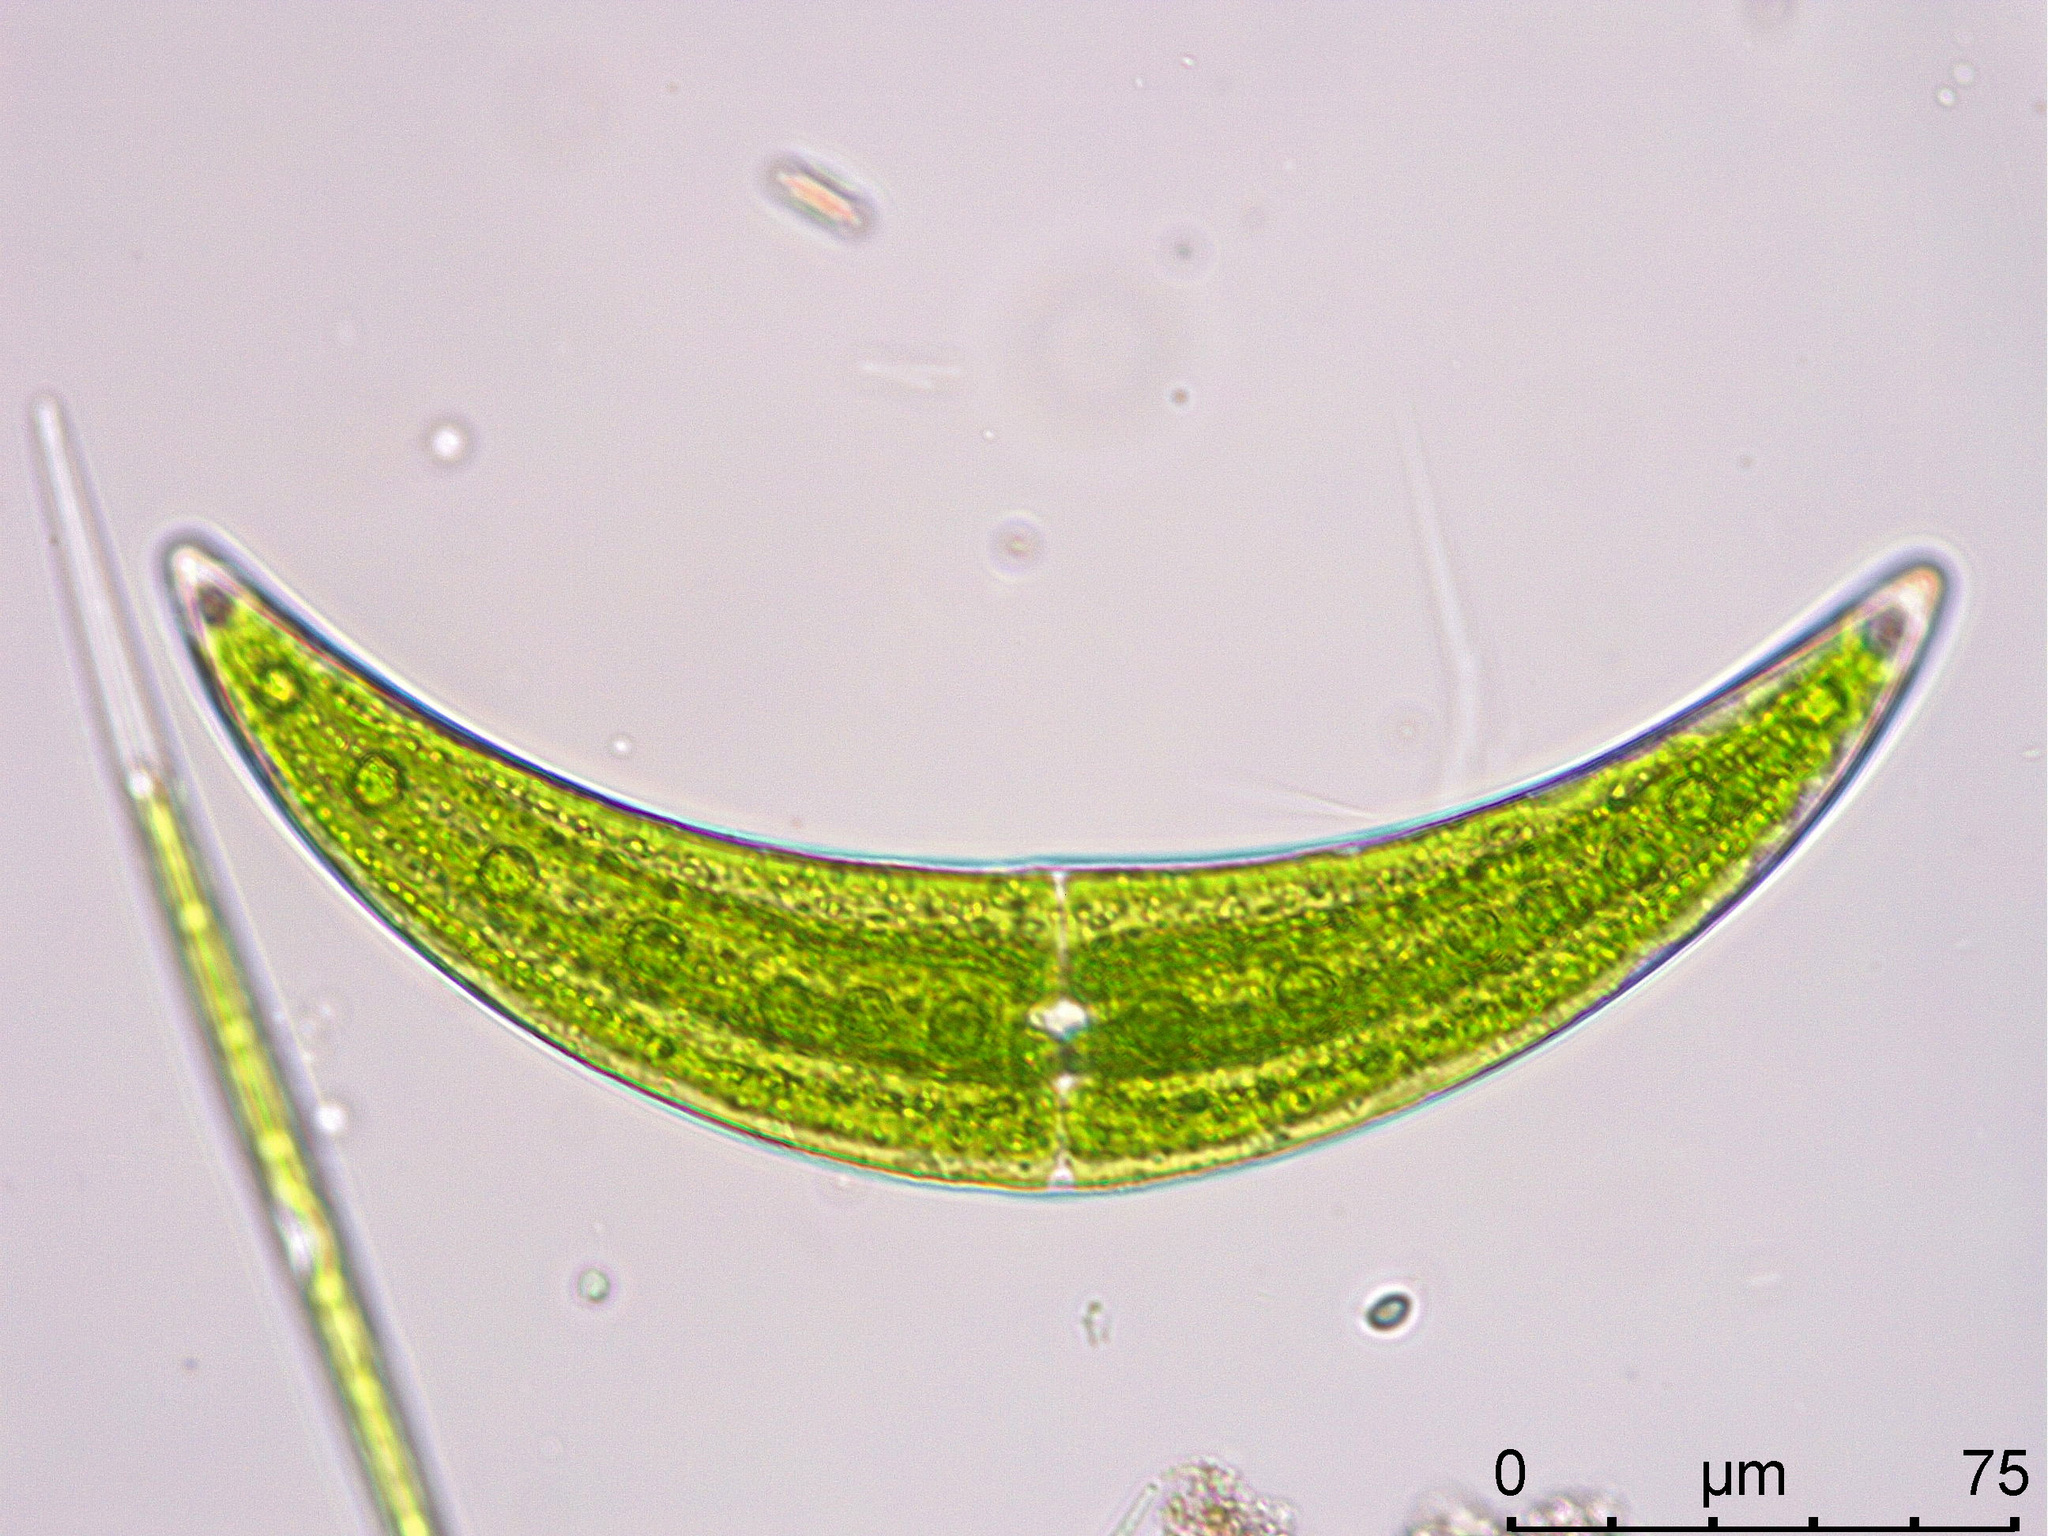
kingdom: Plantae
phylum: Charophyta
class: Zygnematophyceae
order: Zygnematales
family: Closteriaceae
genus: Closterium
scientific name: Closterium moniliferum
